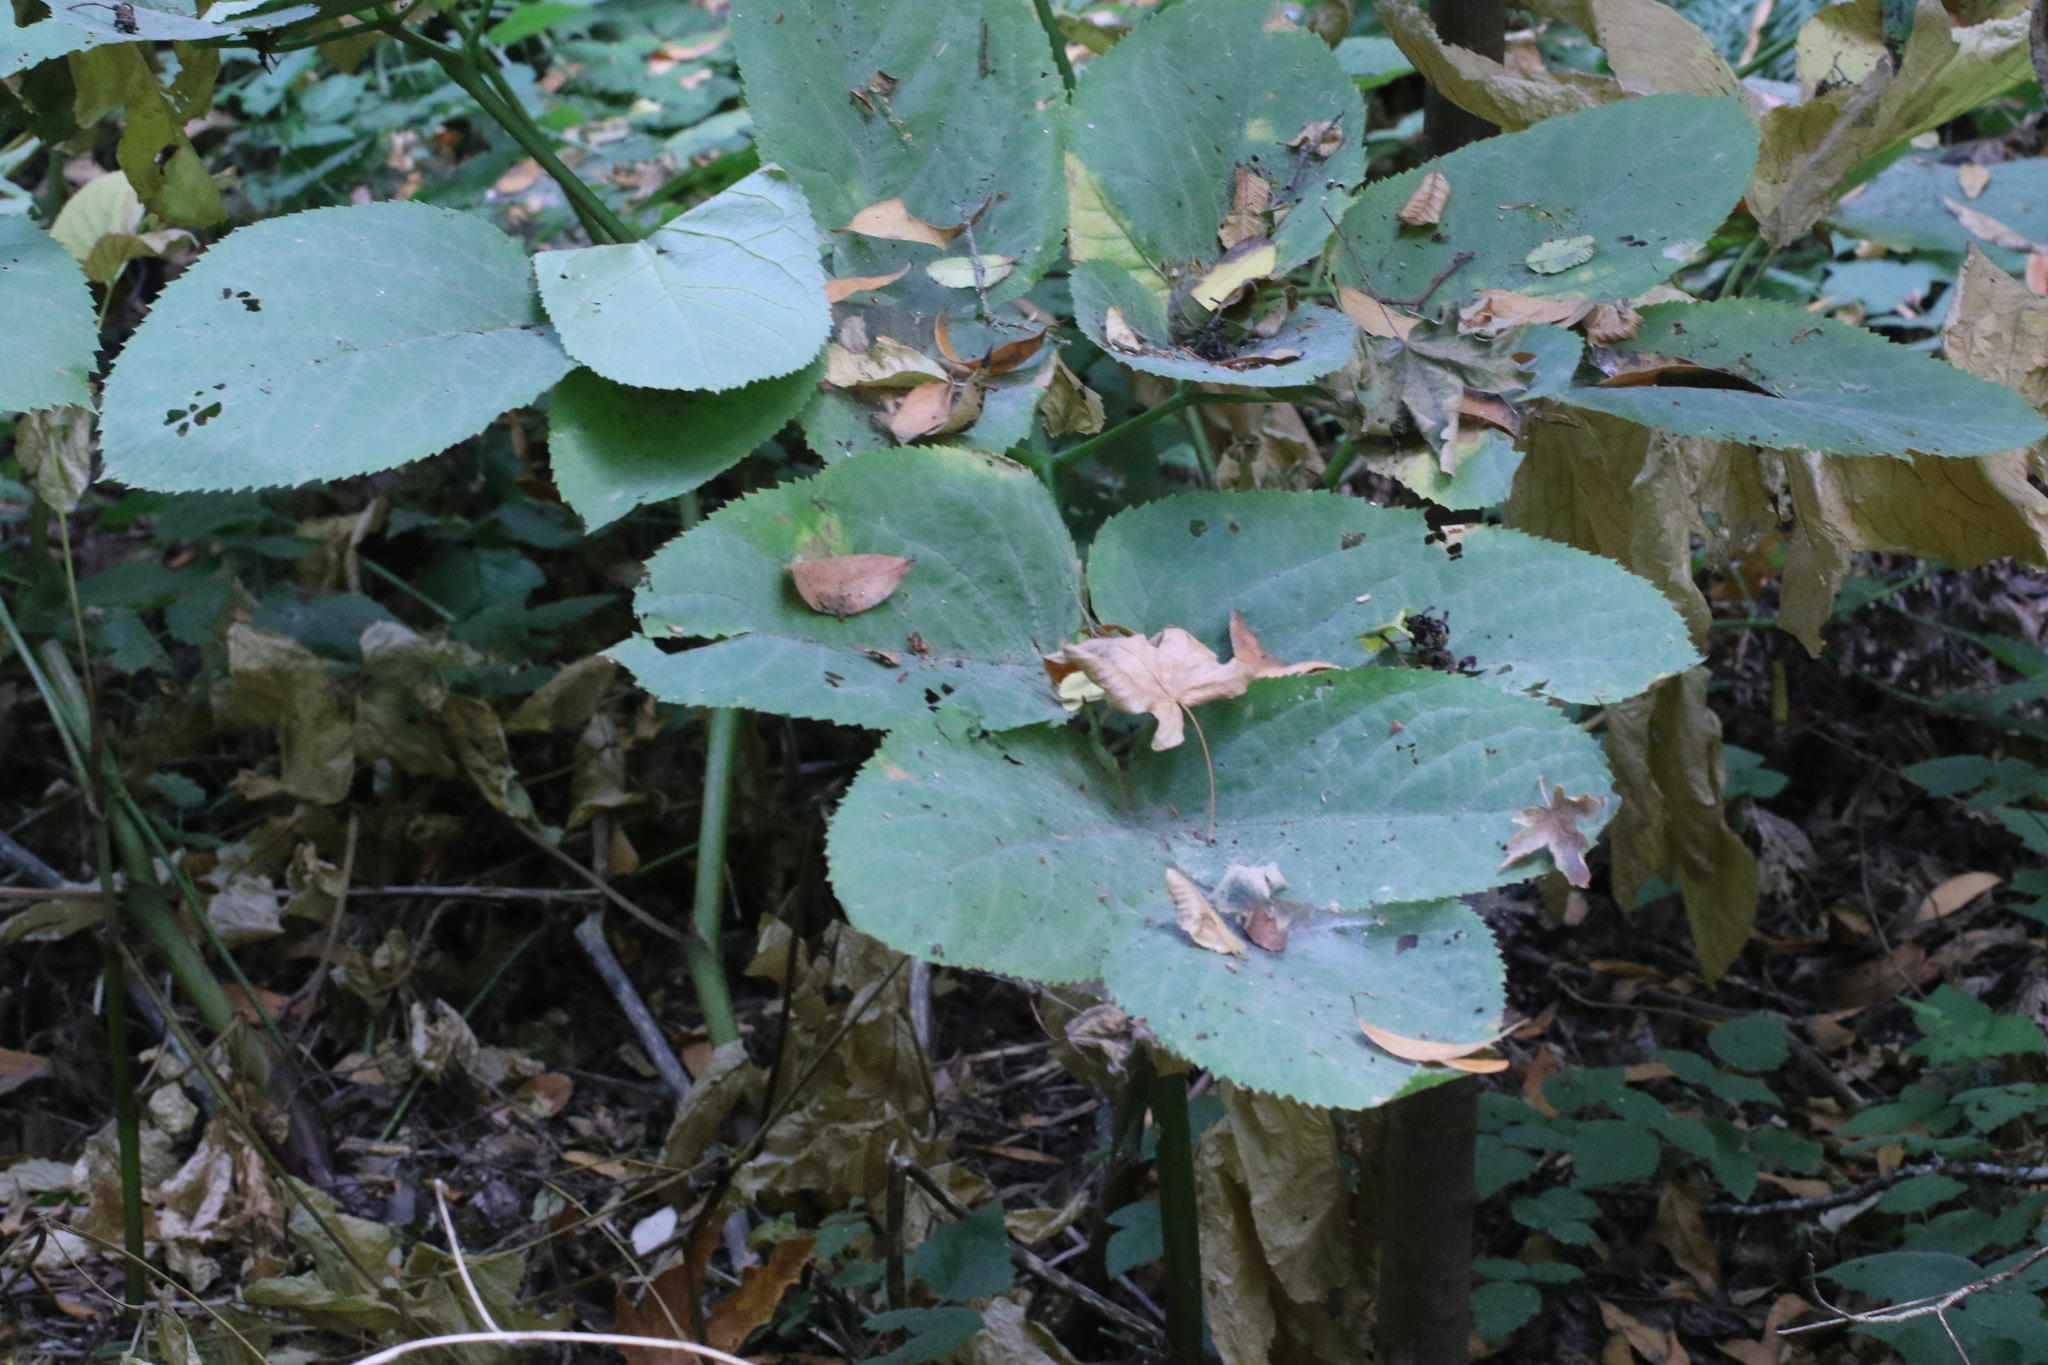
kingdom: Plantae
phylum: Tracheophyta
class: Magnoliopsida
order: Apiales
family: Araliaceae
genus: Aralia
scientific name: Aralia californica
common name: California-ginseng
